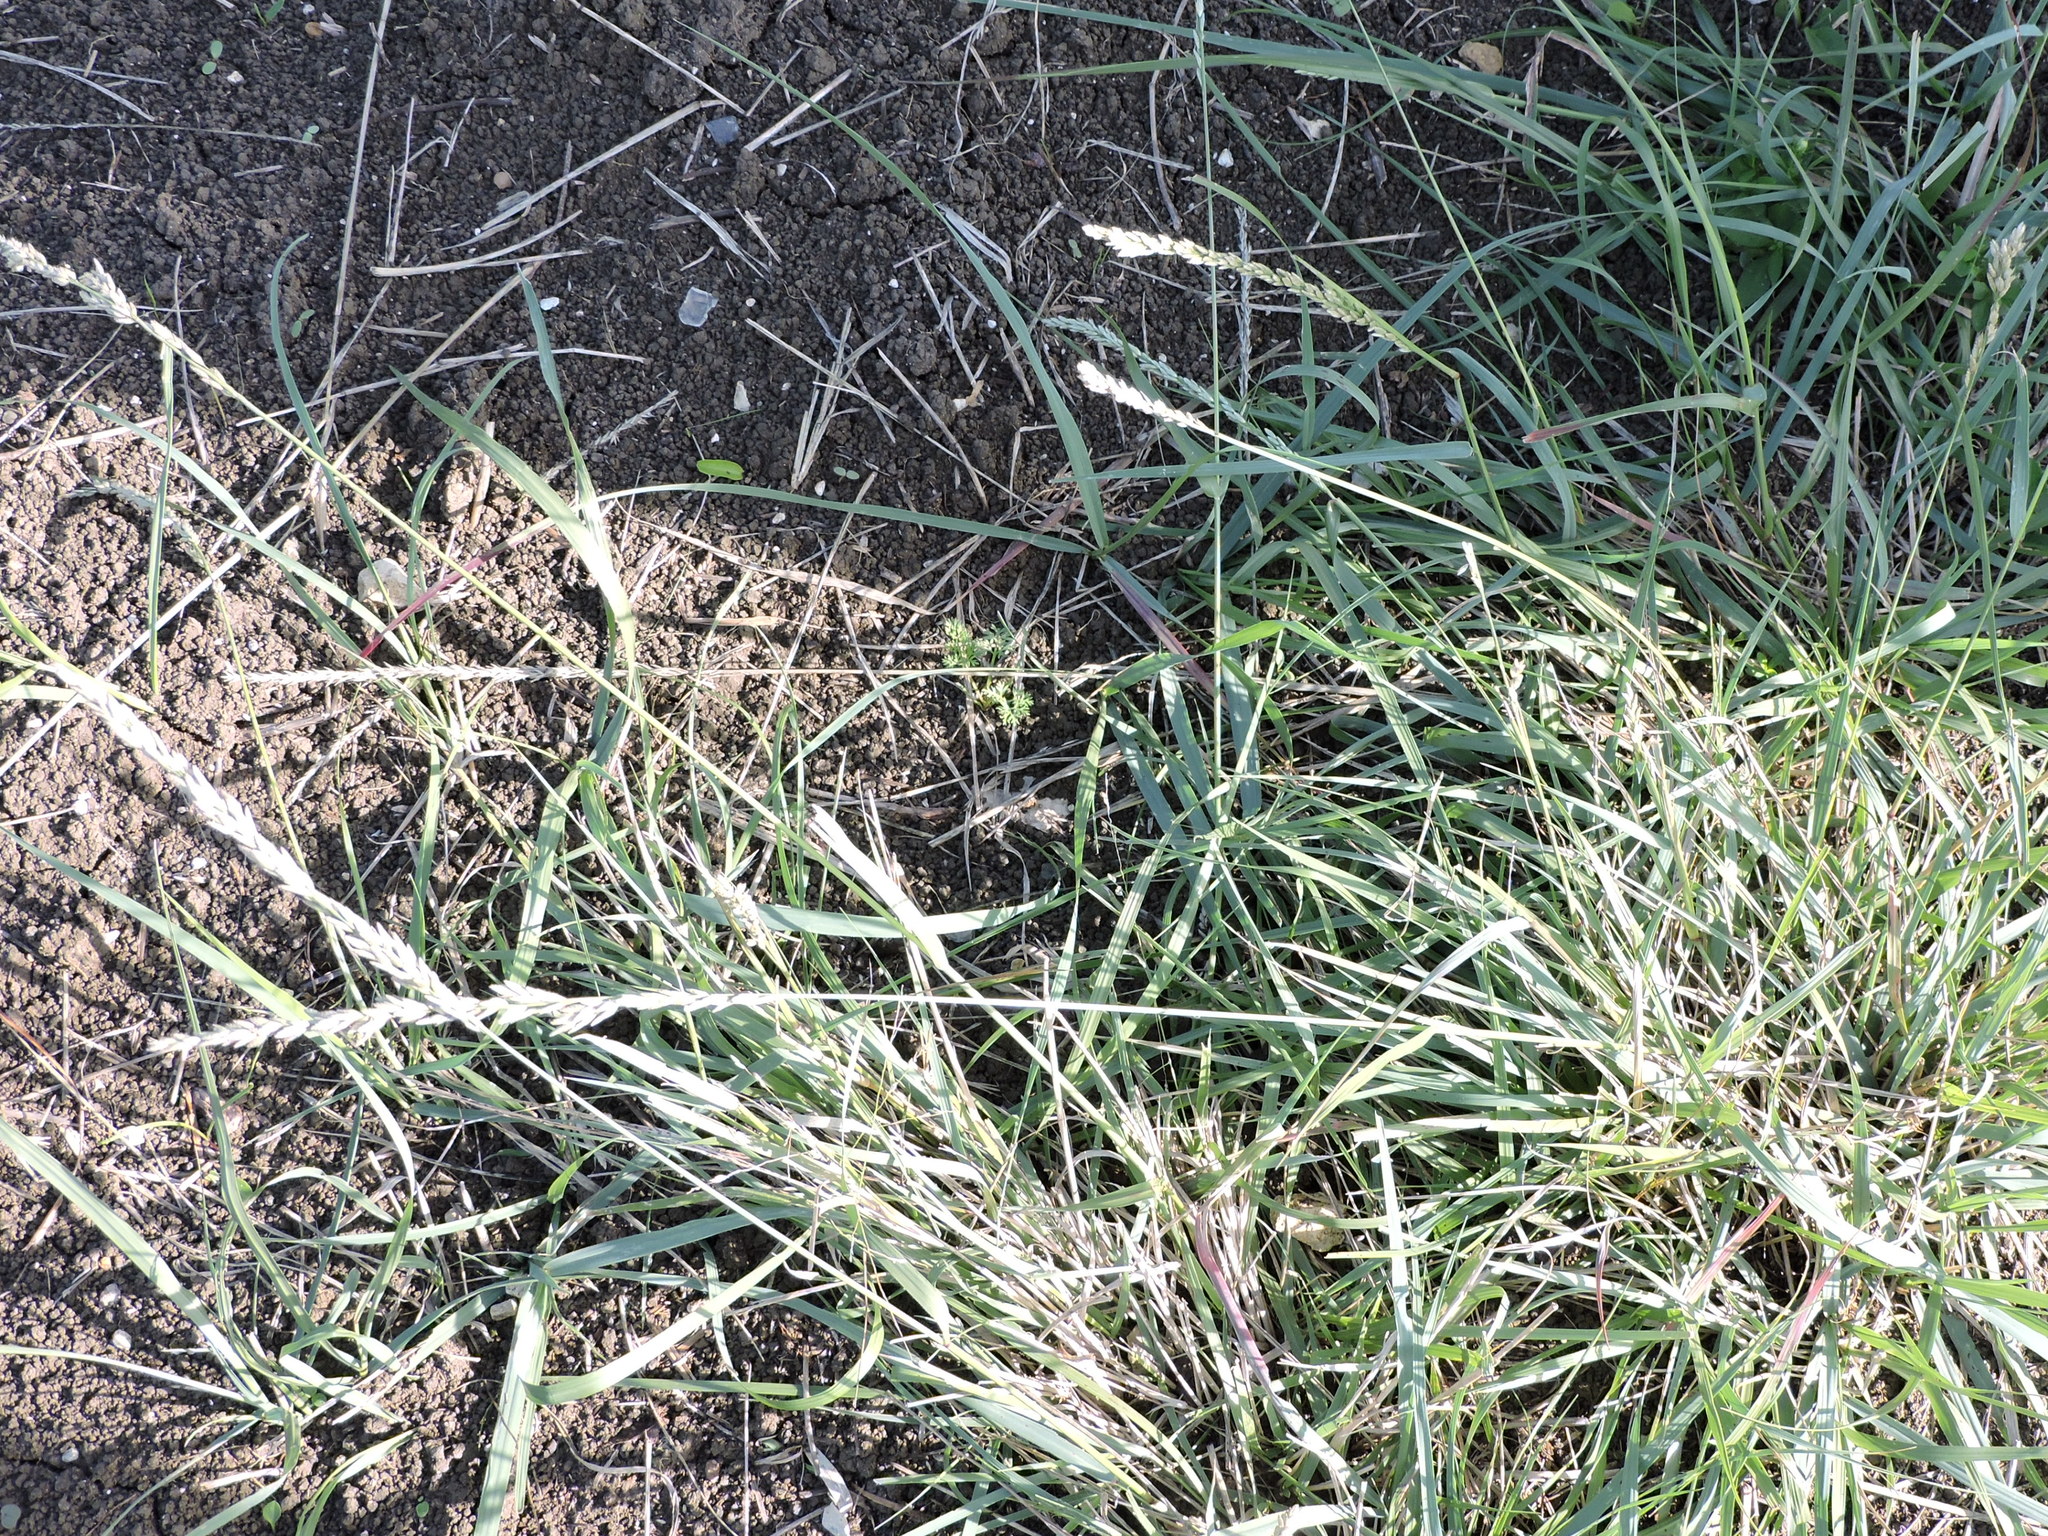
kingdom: Plantae
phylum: Tracheophyta
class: Liliopsida
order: Poales
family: Poaceae
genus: Tridens
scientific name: Tridens albescens
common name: White tridens
